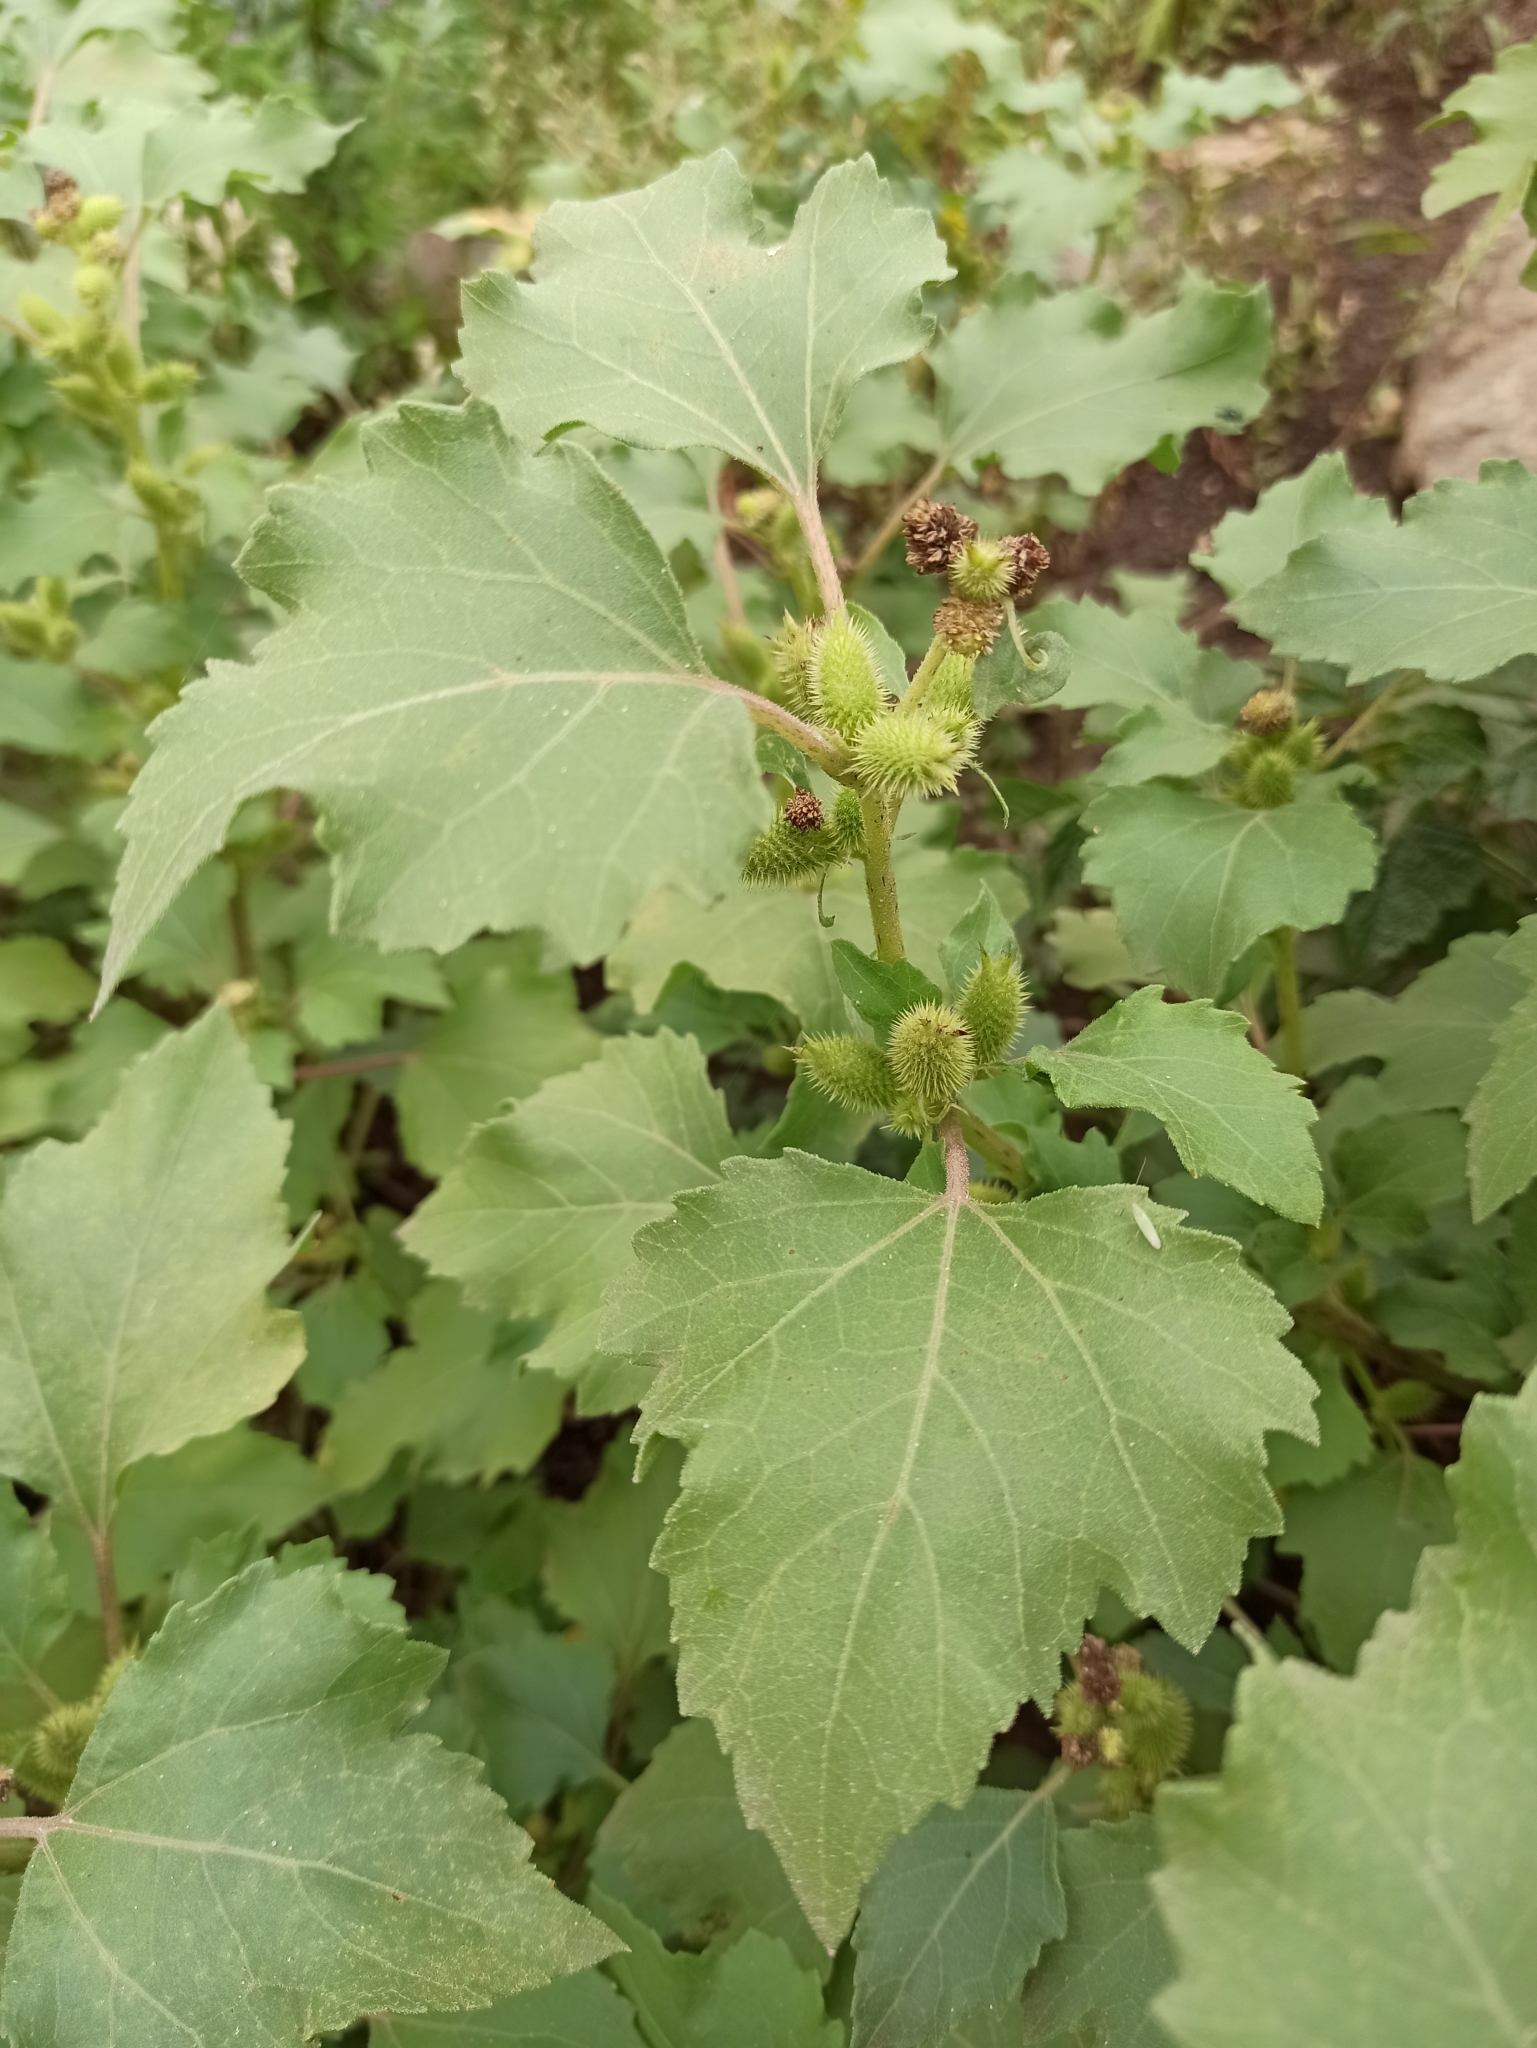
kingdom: Plantae
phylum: Tracheophyta
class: Magnoliopsida
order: Asterales
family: Asteraceae
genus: Xanthium
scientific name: Xanthium orientale
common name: Californian burr
